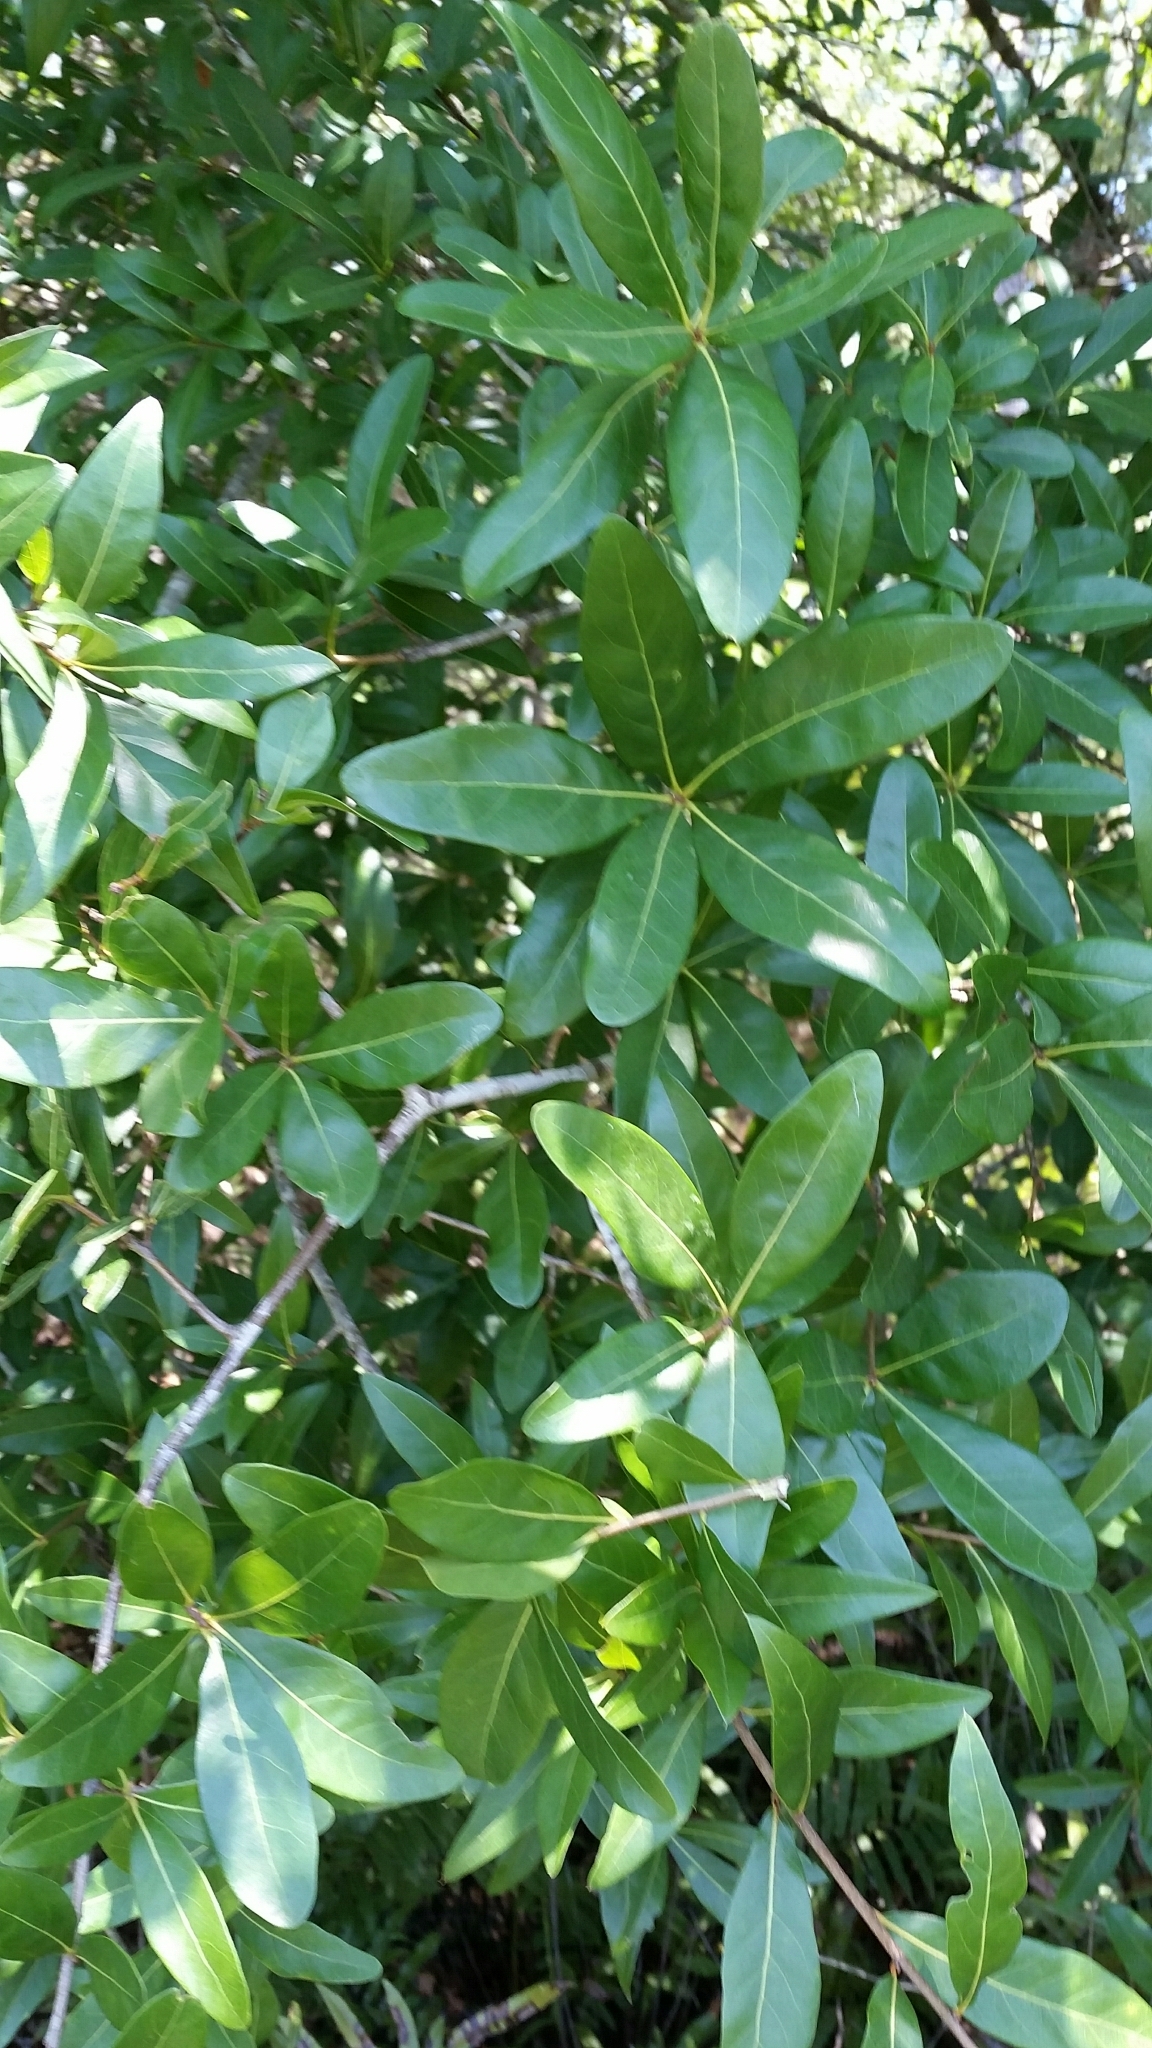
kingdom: Plantae
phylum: Tracheophyta
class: Magnoliopsida
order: Fagales
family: Fagaceae
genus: Quercus
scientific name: Quercus laurifolia
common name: Swamp laurel oak
